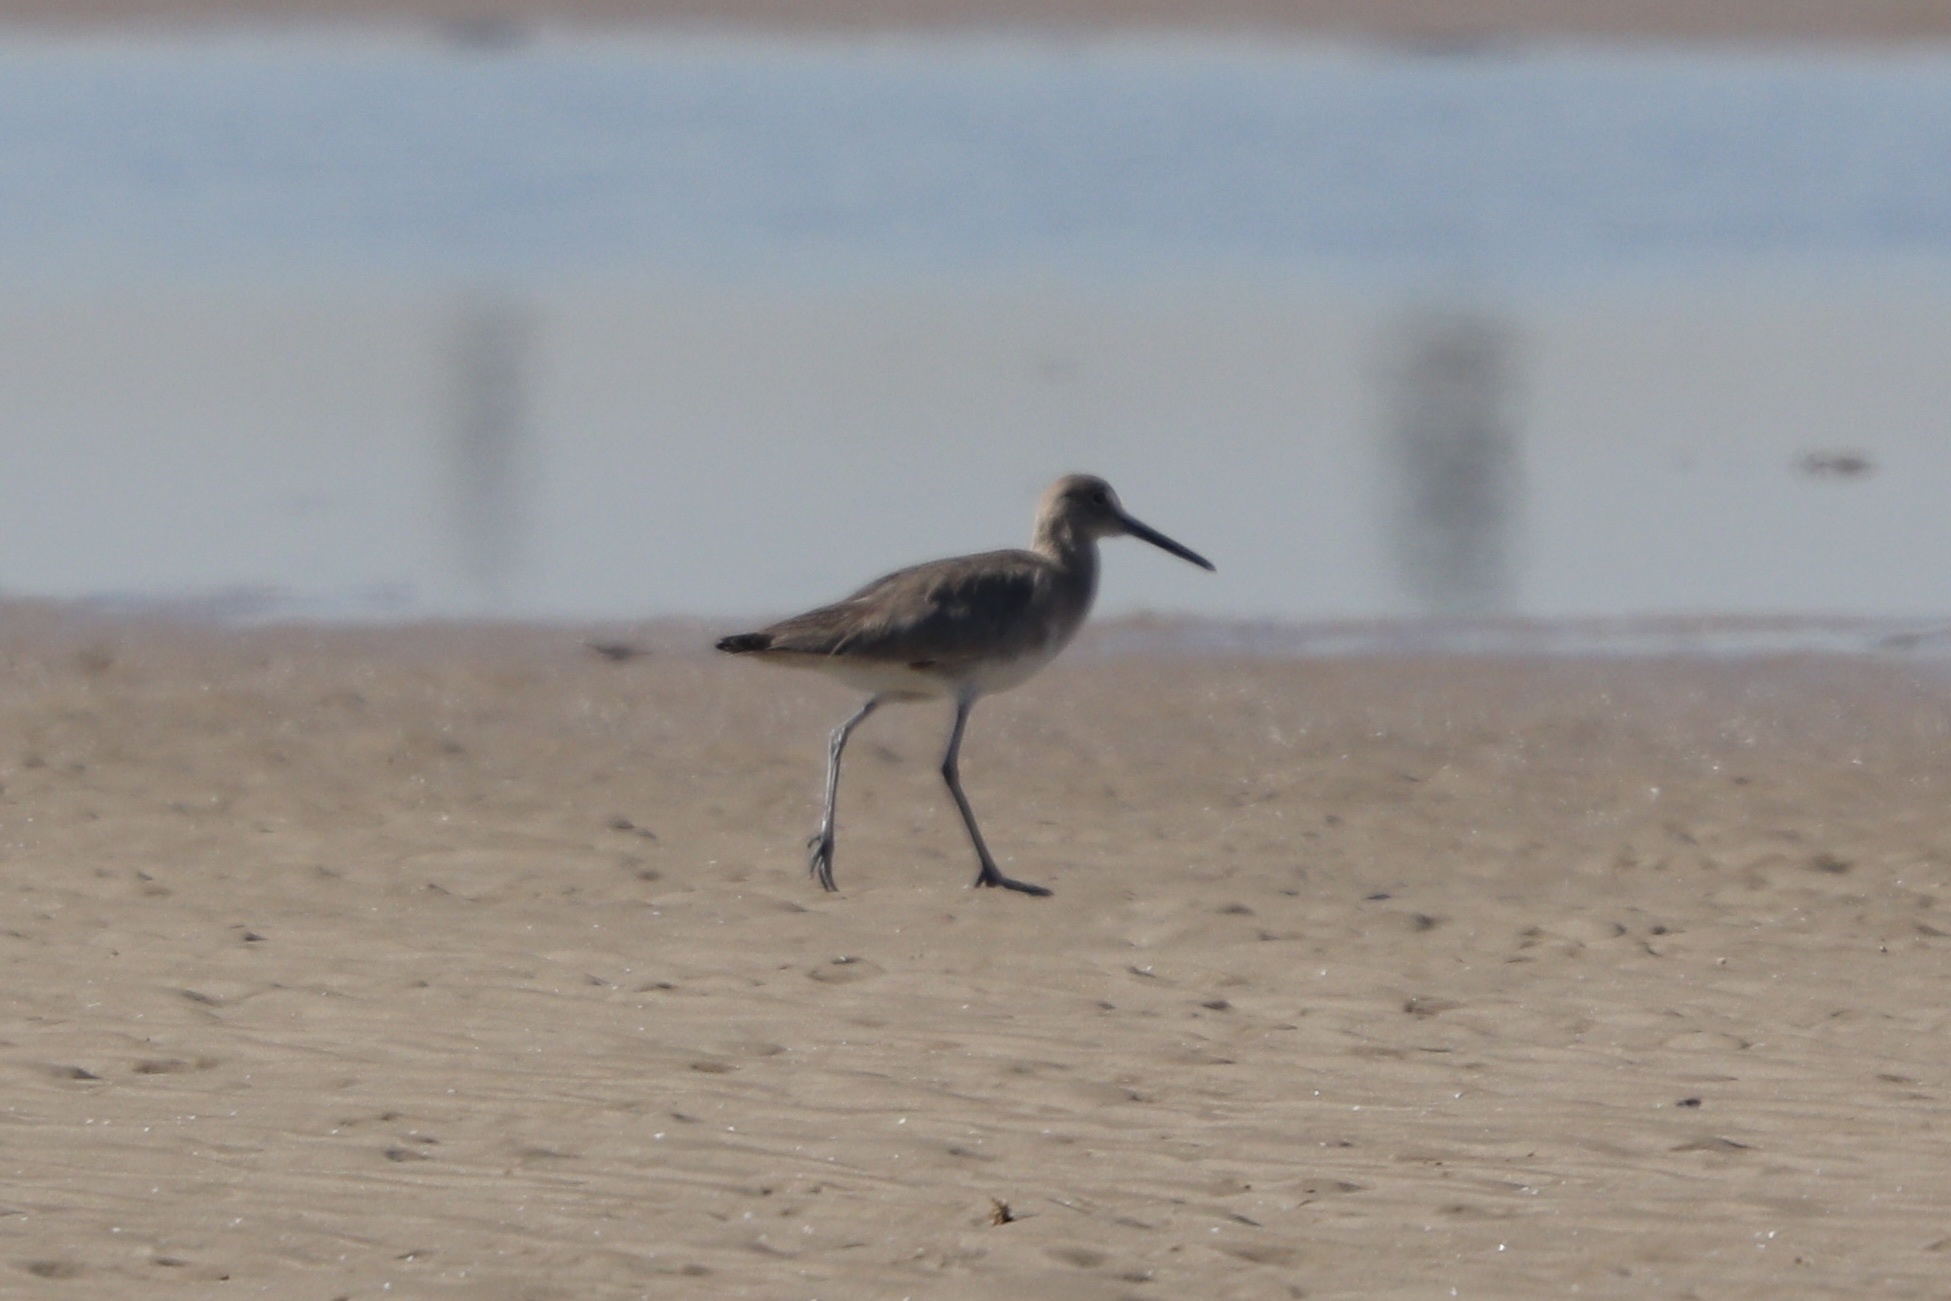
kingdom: Animalia
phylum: Chordata
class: Aves
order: Charadriiformes
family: Scolopacidae
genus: Tringa
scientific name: Tringa semipalmata
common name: Willet
